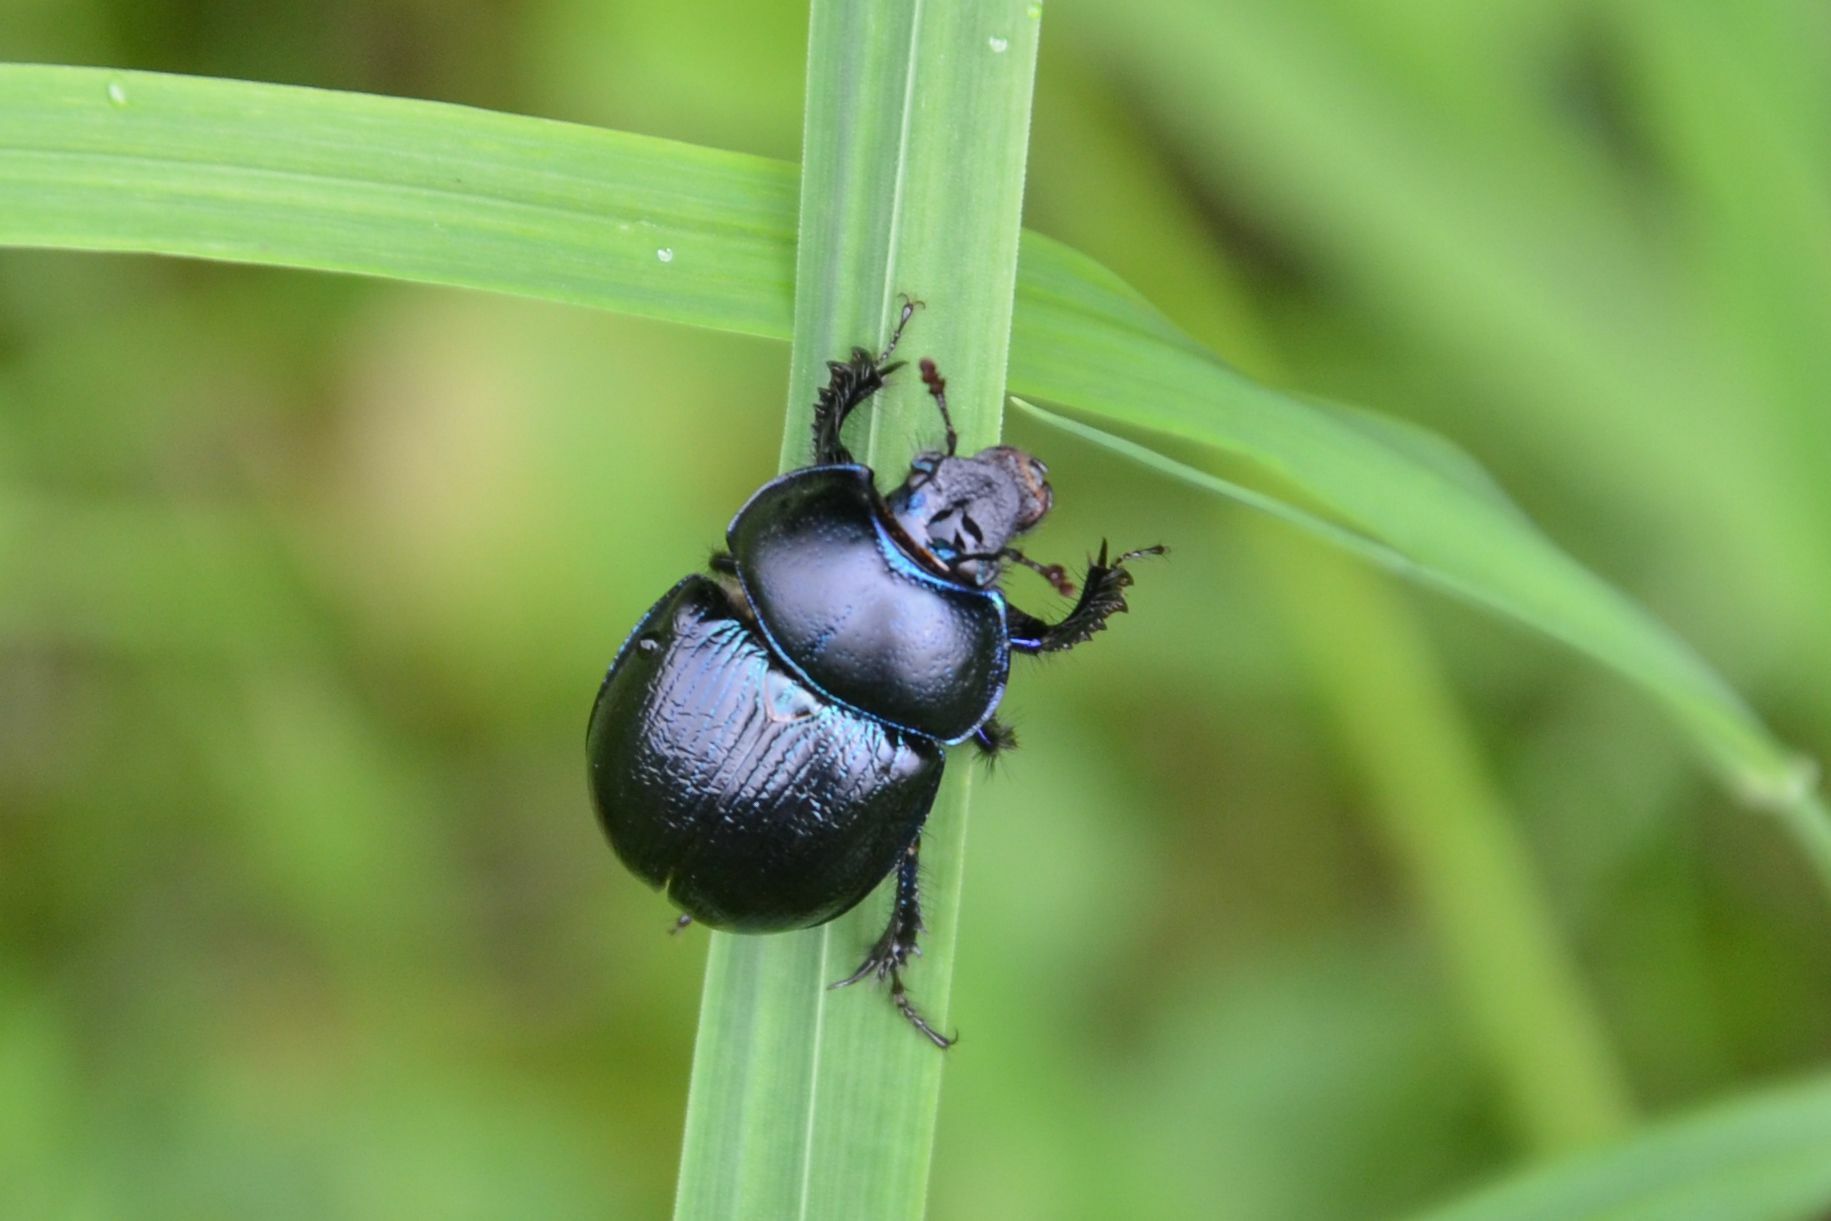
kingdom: Animalia
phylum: Arthropoda
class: Insecta
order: Coleoptera
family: Geotrupidae
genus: Anoplotrupes
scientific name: Anoplotrupes stercorosus
